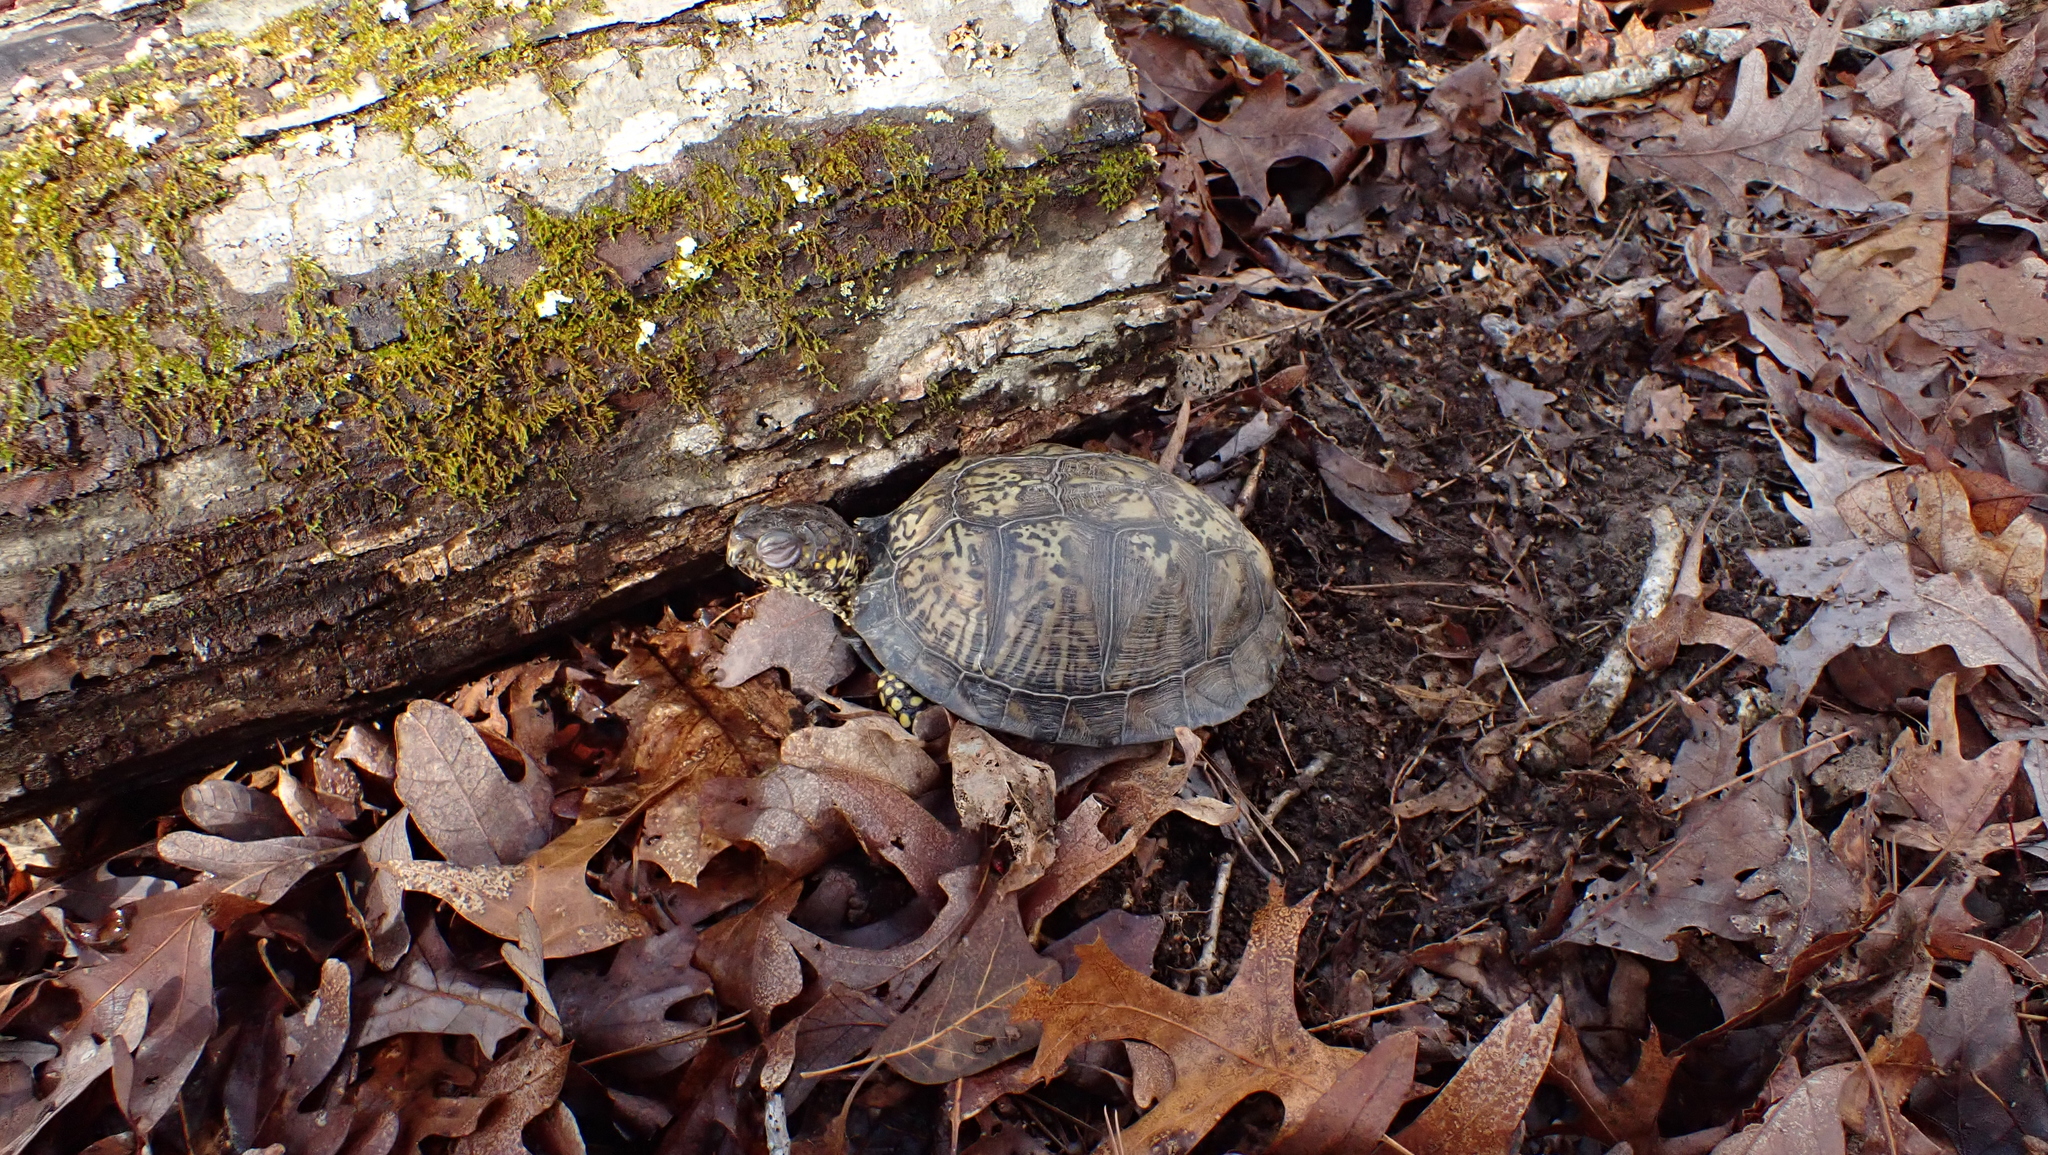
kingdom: Animalia
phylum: Chordata
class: Testudines
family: Emydidae
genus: Terrapene
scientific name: Terrapene carolina
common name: Common box turtle
